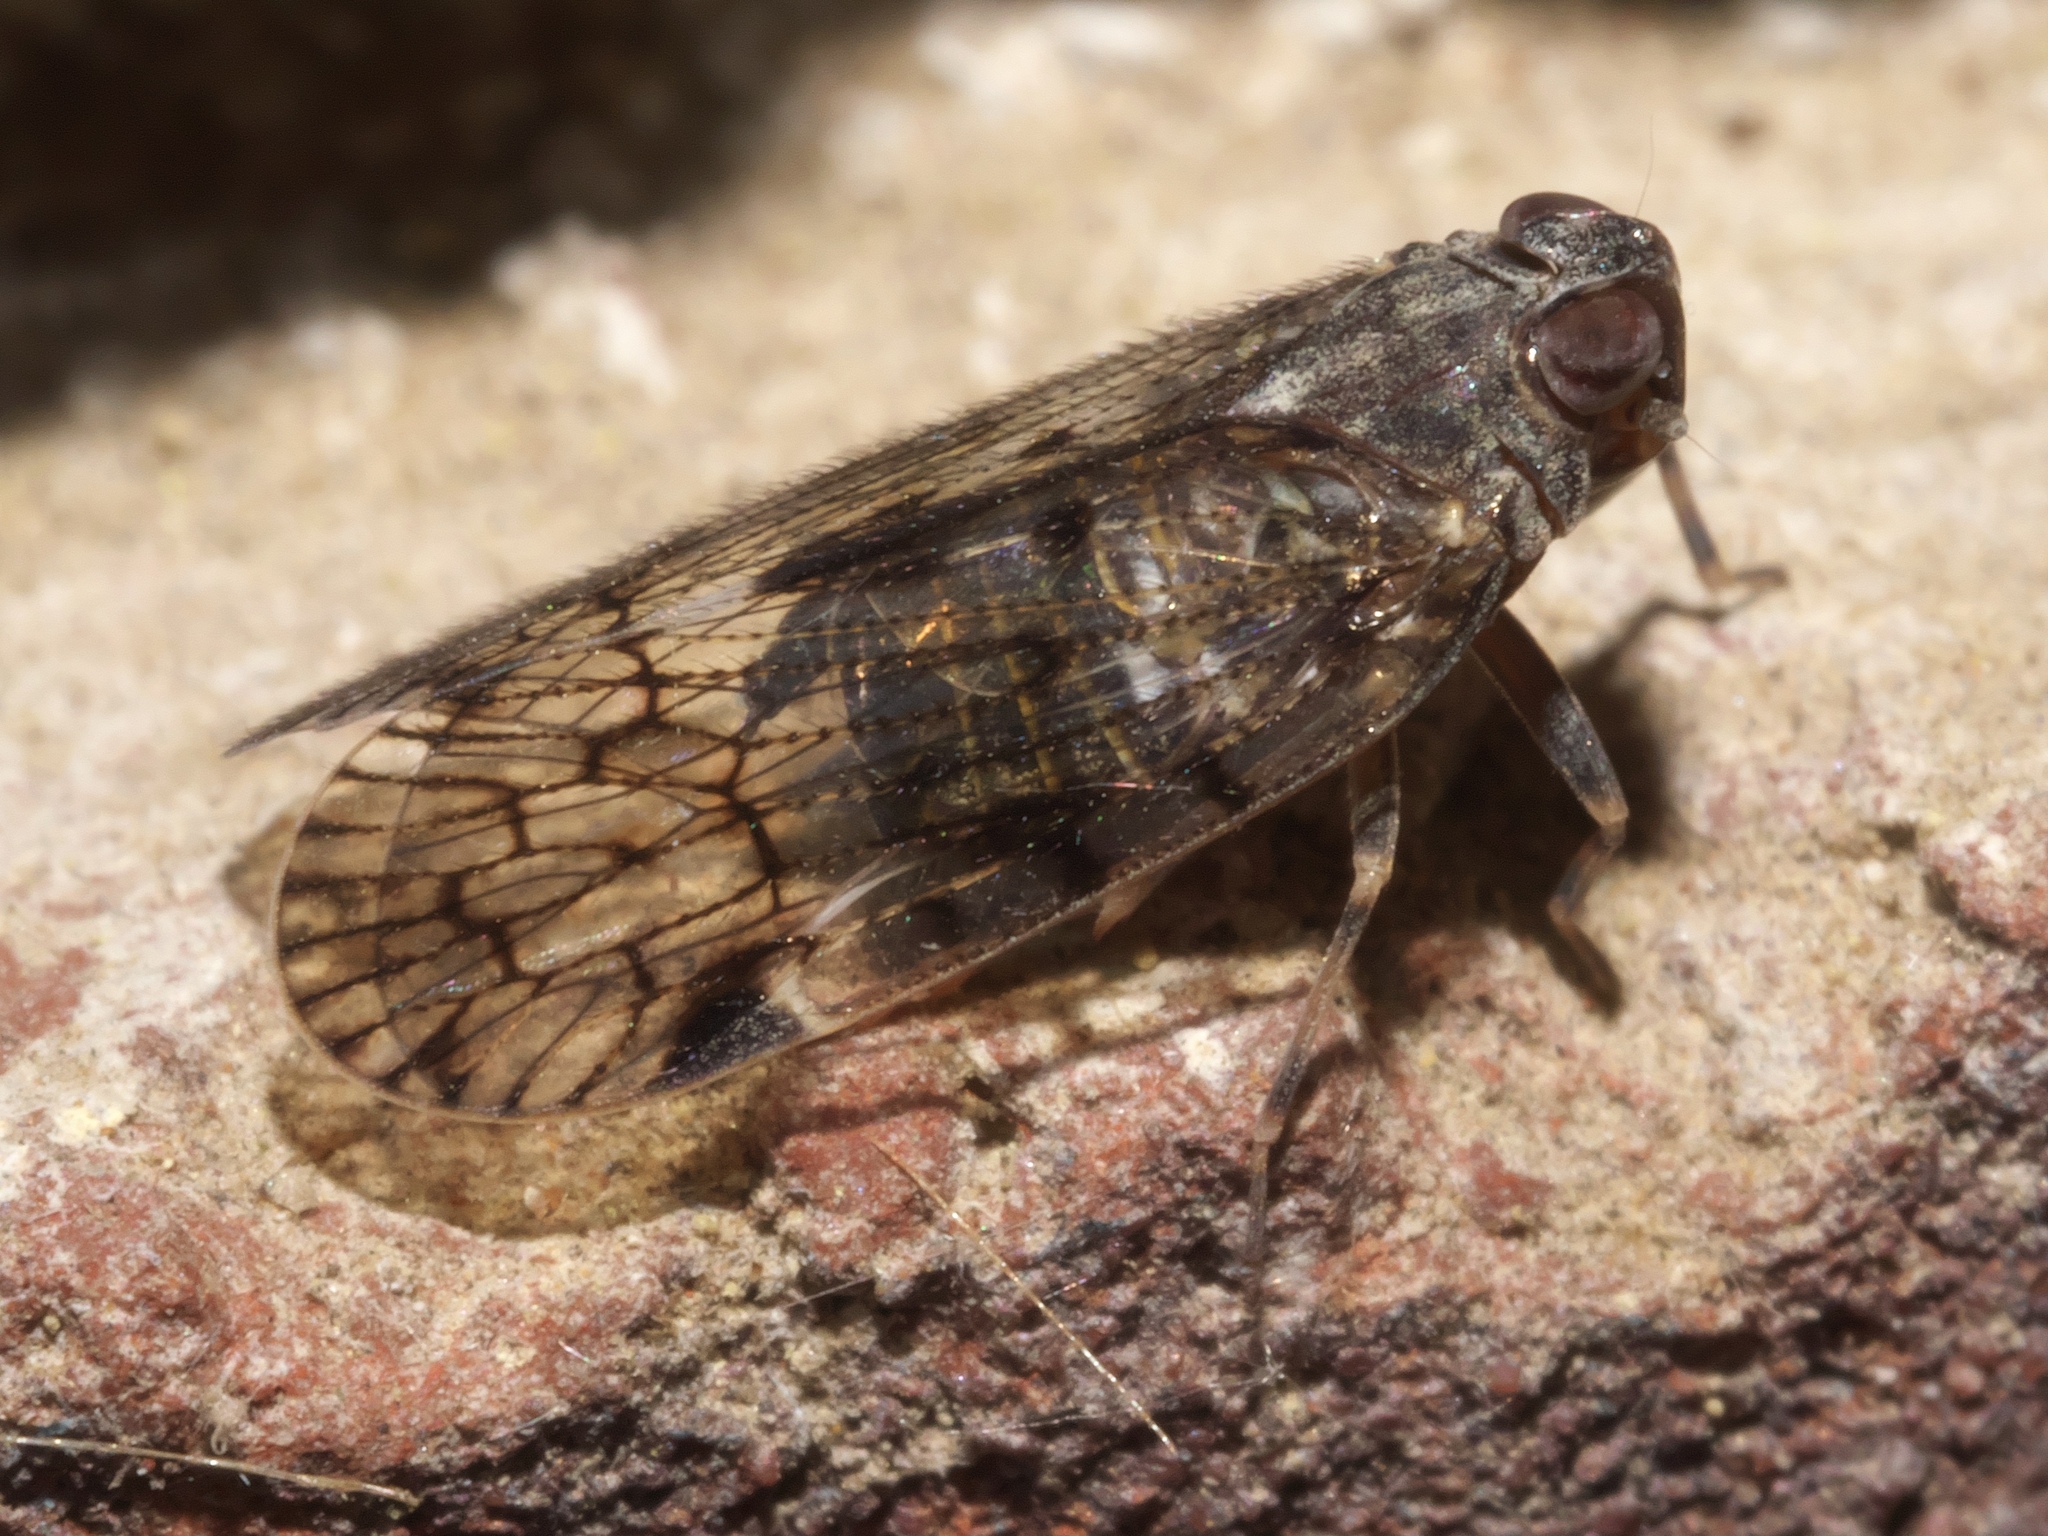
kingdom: Animalia
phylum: Arthropoda
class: Insecta
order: Hemiptera
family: Cixiidae
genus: Melanoliarus
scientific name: Melanoliarus placitus
